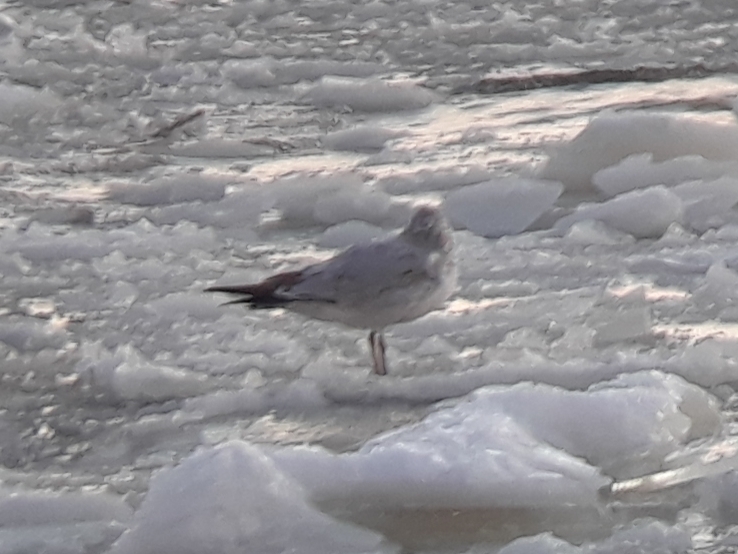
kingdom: Animalia
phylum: Chordata
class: Aves
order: Charadriiformes
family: Laridae
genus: Larus
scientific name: Larus delawarensis
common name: Ring-billed gull
